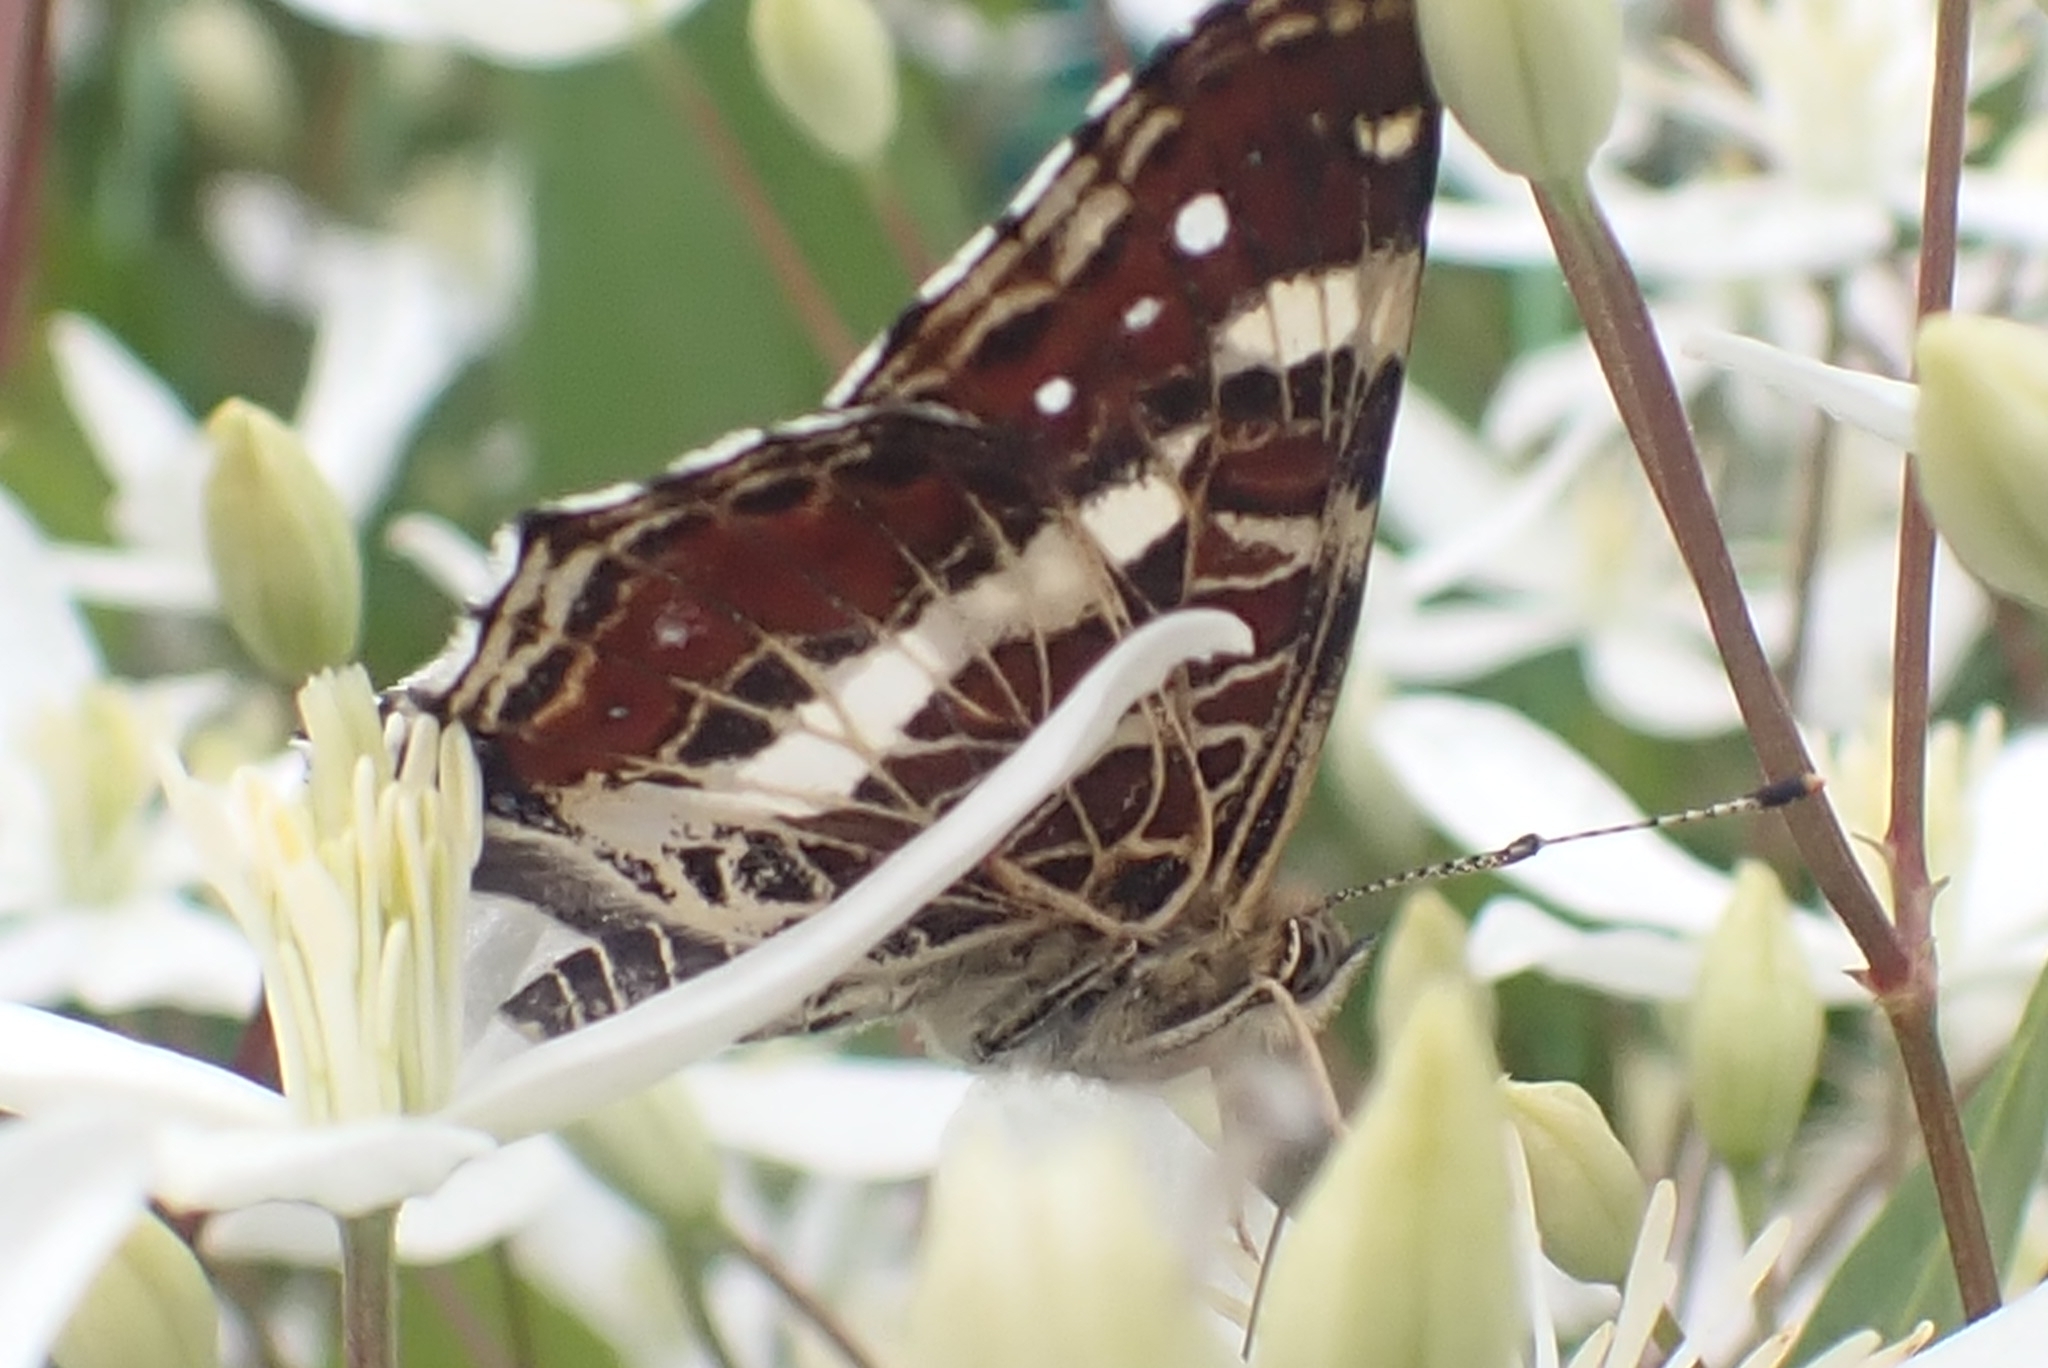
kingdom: Animalia
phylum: Arthropoda
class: Insecta
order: Lepidoptera
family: Nymphalidae
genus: Araschnia
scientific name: Araschnia levana
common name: Map butterfly
